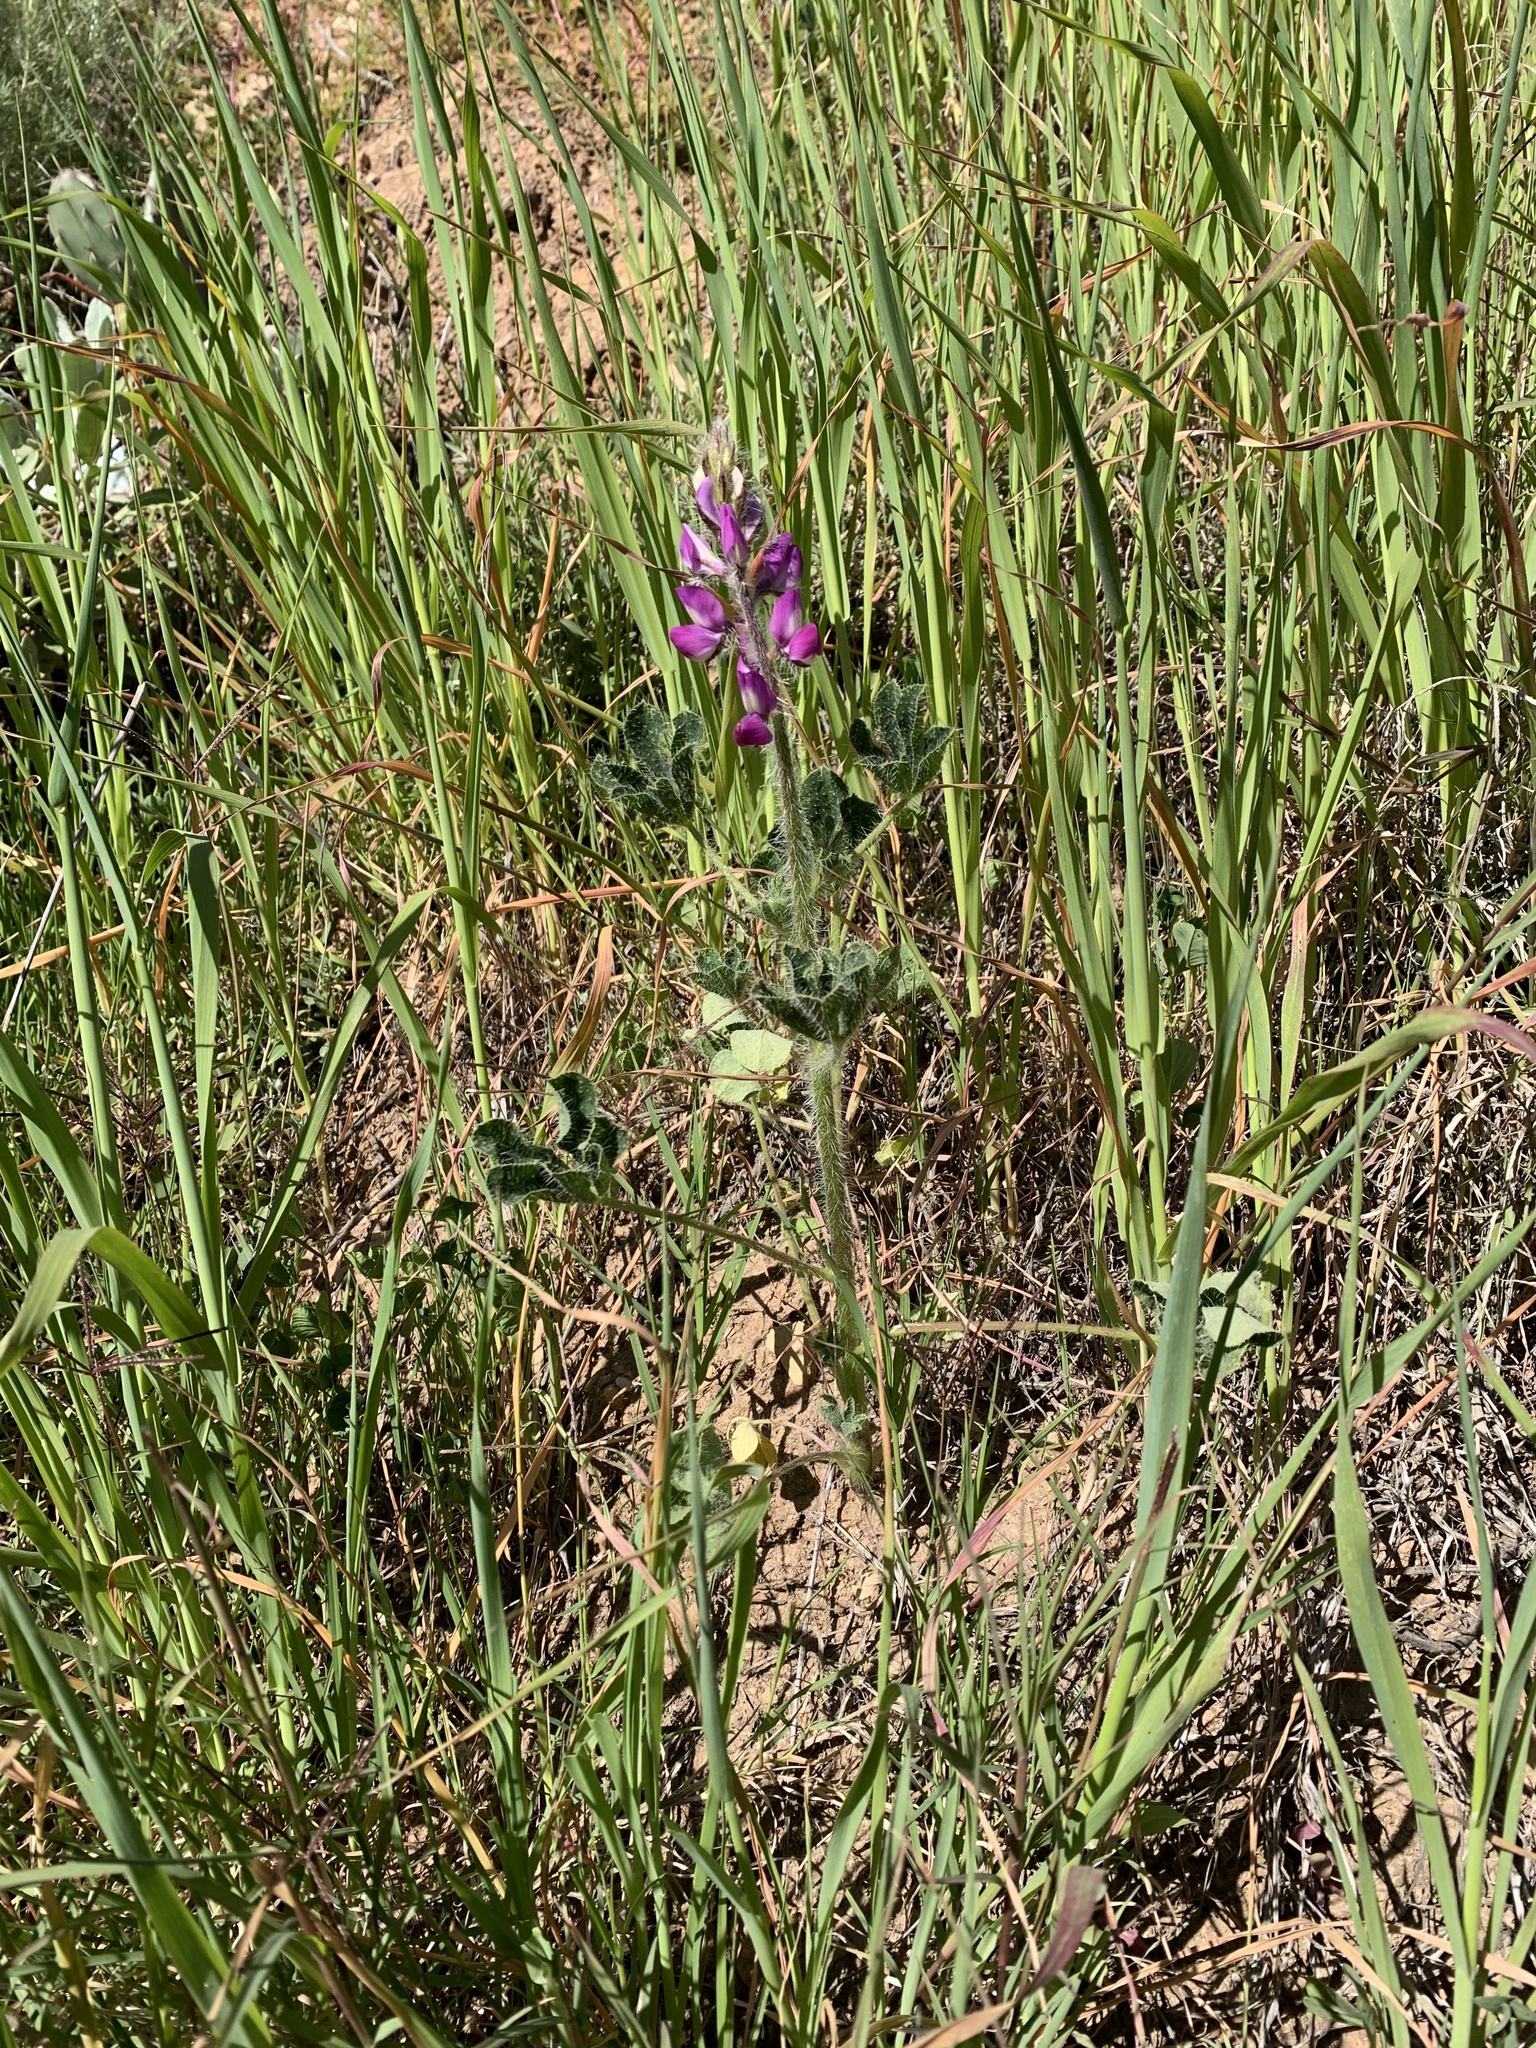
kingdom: Plantae
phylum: Tracheophyta
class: Magnoliopsida
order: Fabales
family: Fabaceae
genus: Lupinus
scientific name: Lupinus hirsutissimus
